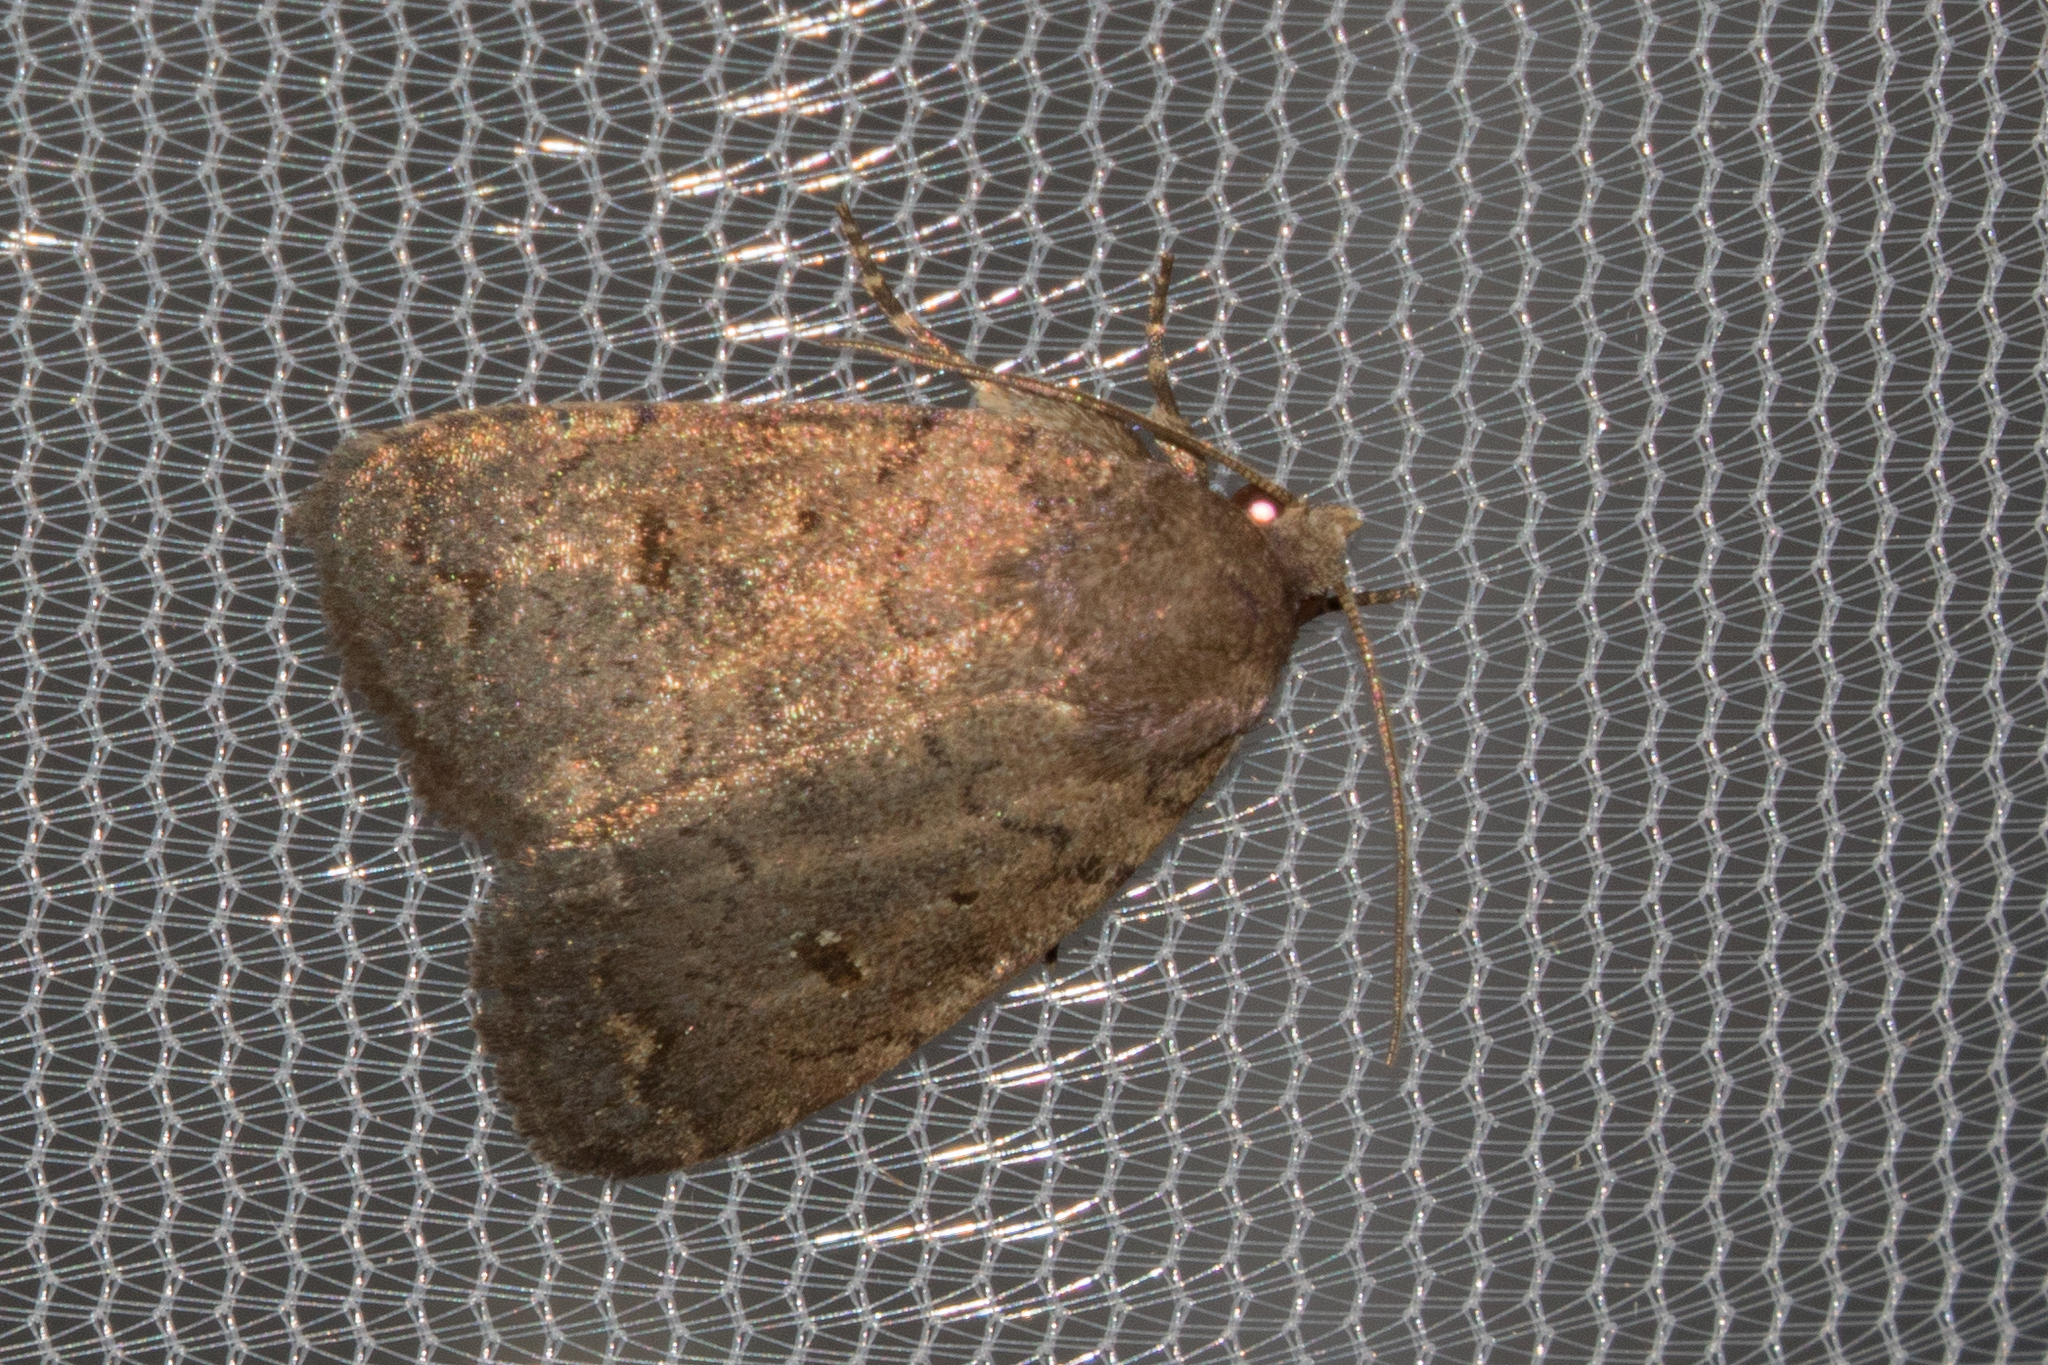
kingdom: Animalia
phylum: Arthropoda
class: Insecta
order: Lepidoptera
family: Noctuidae
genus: Athetis
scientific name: Athetis tarda
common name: Slowpoke moth
